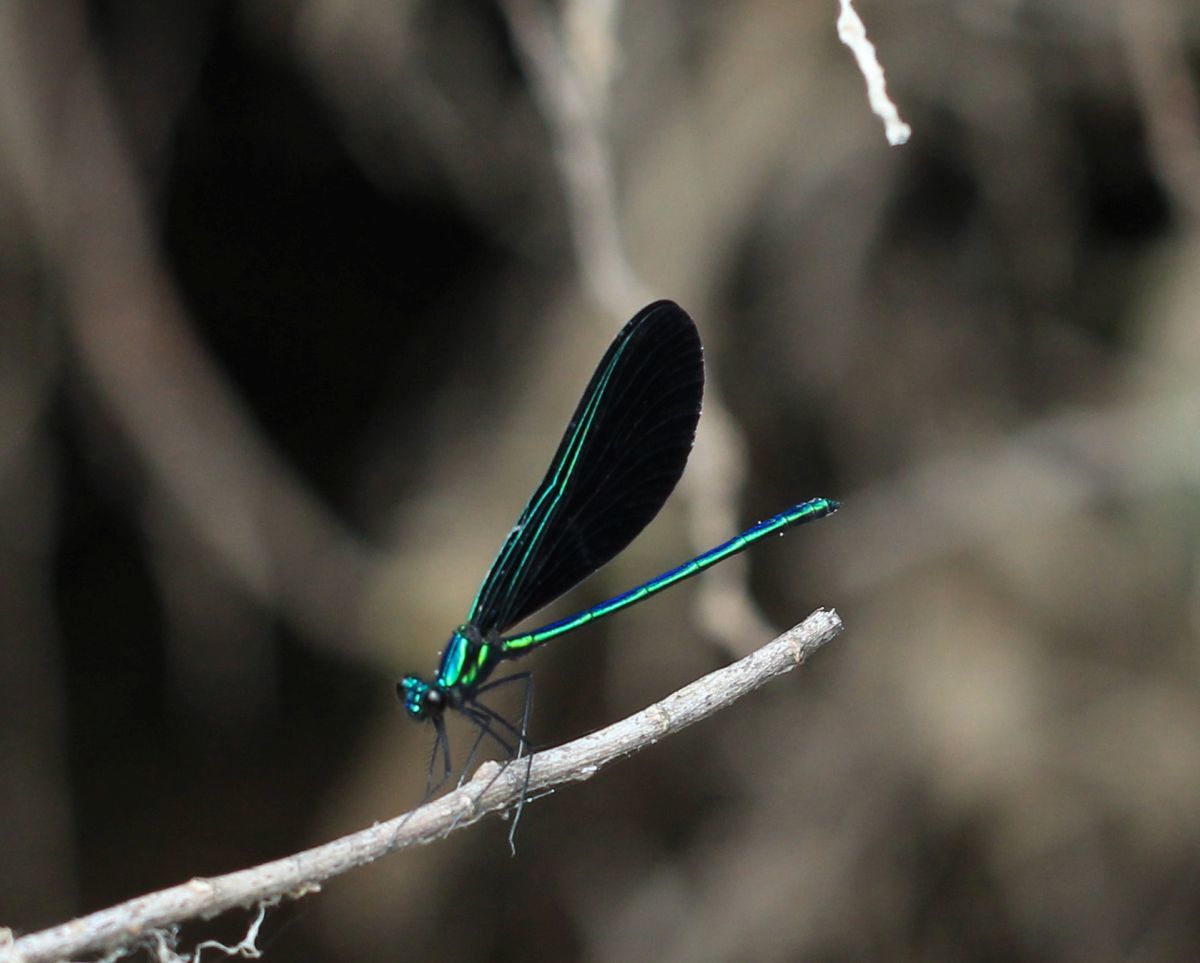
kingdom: Animalia
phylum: Arthropoda
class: Insecta
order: Odonata
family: Calopterygidae
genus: Calopteryx
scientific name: Calopteryx maculata
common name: Ebony jewelwing
